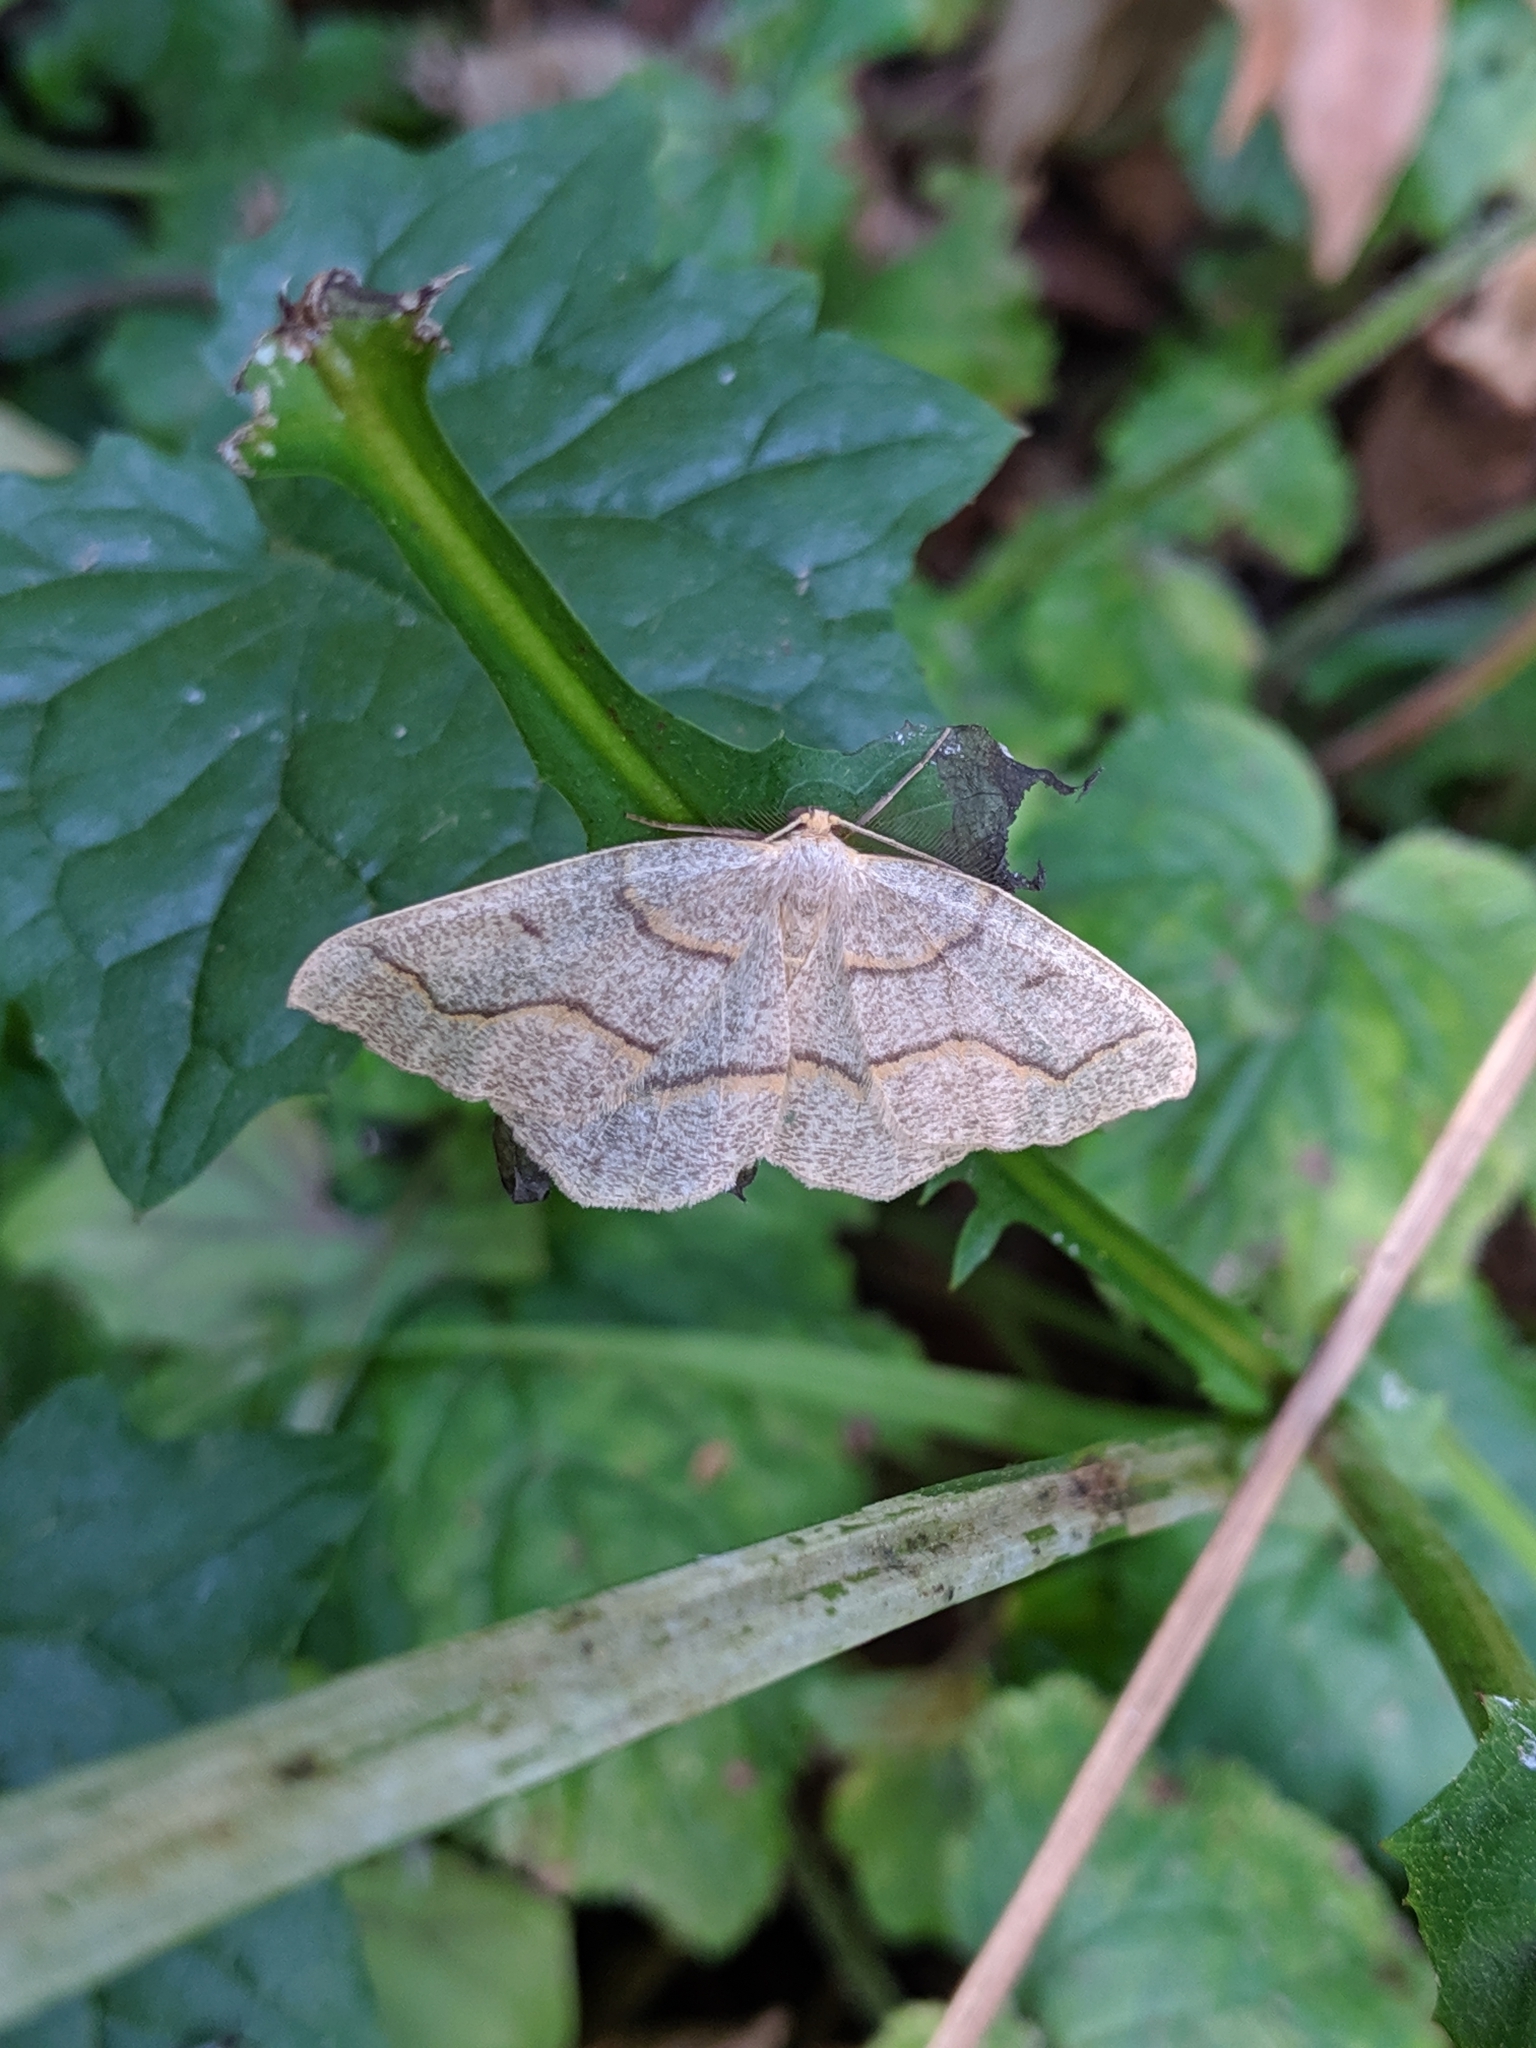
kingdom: Animalia
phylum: Arthropoda
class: Insecta
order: Lepidoptera
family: Geometridae
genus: Lambdina
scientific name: Lambdina fiscellaria
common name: Hemlock looper
